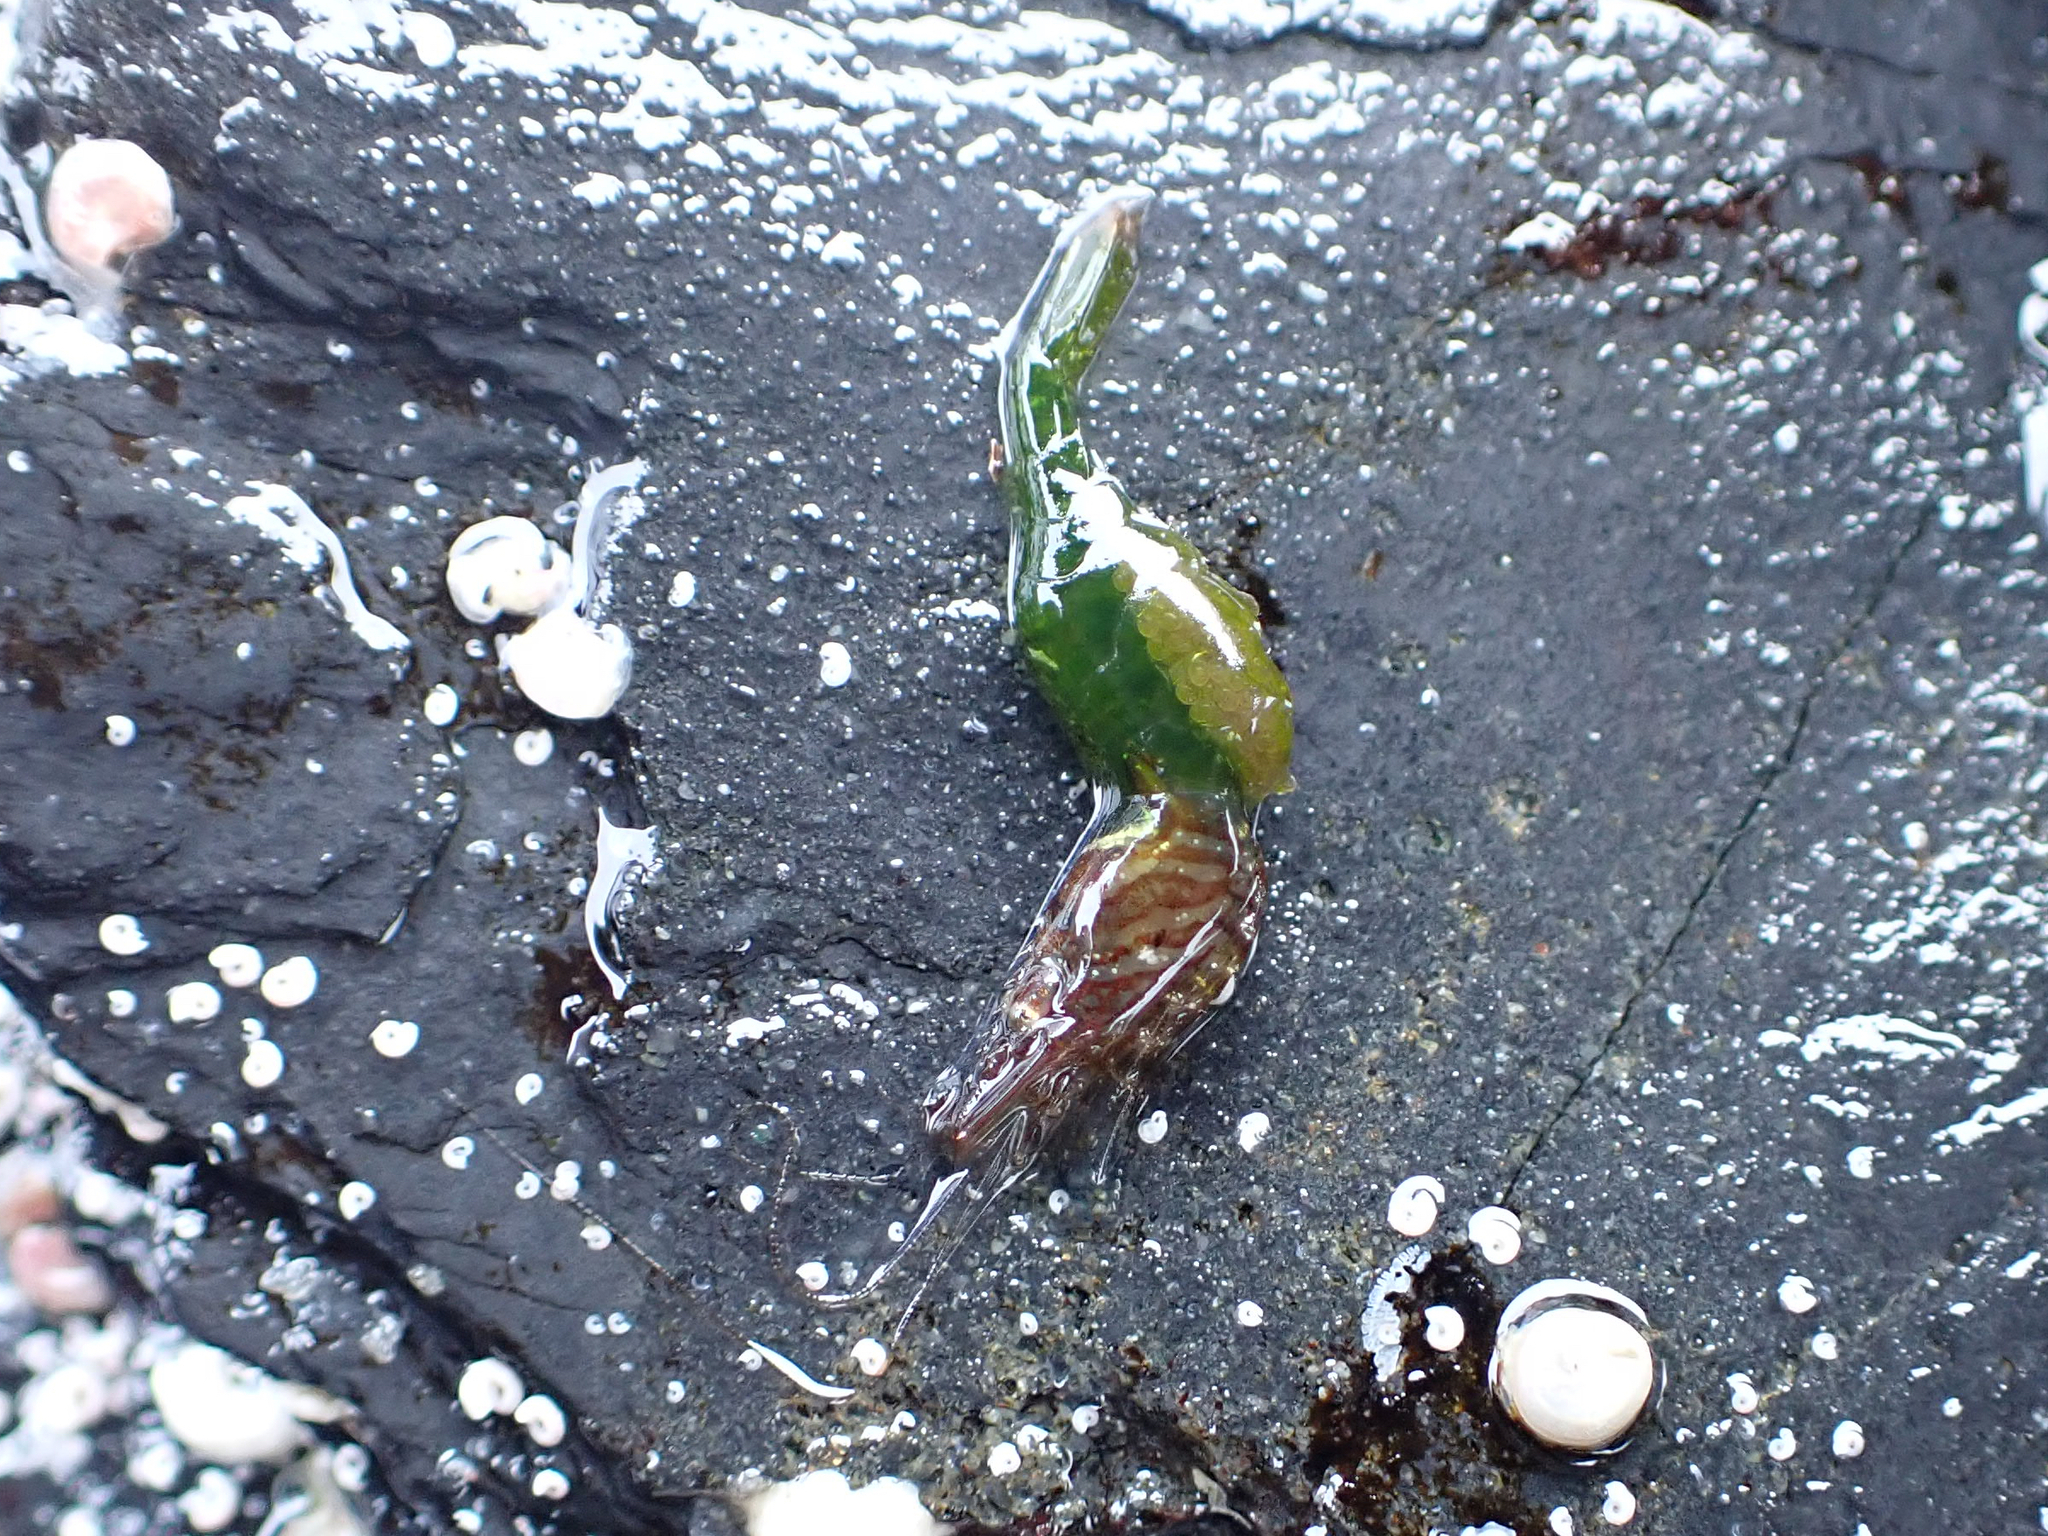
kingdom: Animalia
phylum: Arthropoda
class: Malacostraca
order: Decapoda
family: Thoridae
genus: Heptacarpus
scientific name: Heptacarpus sitchensis
